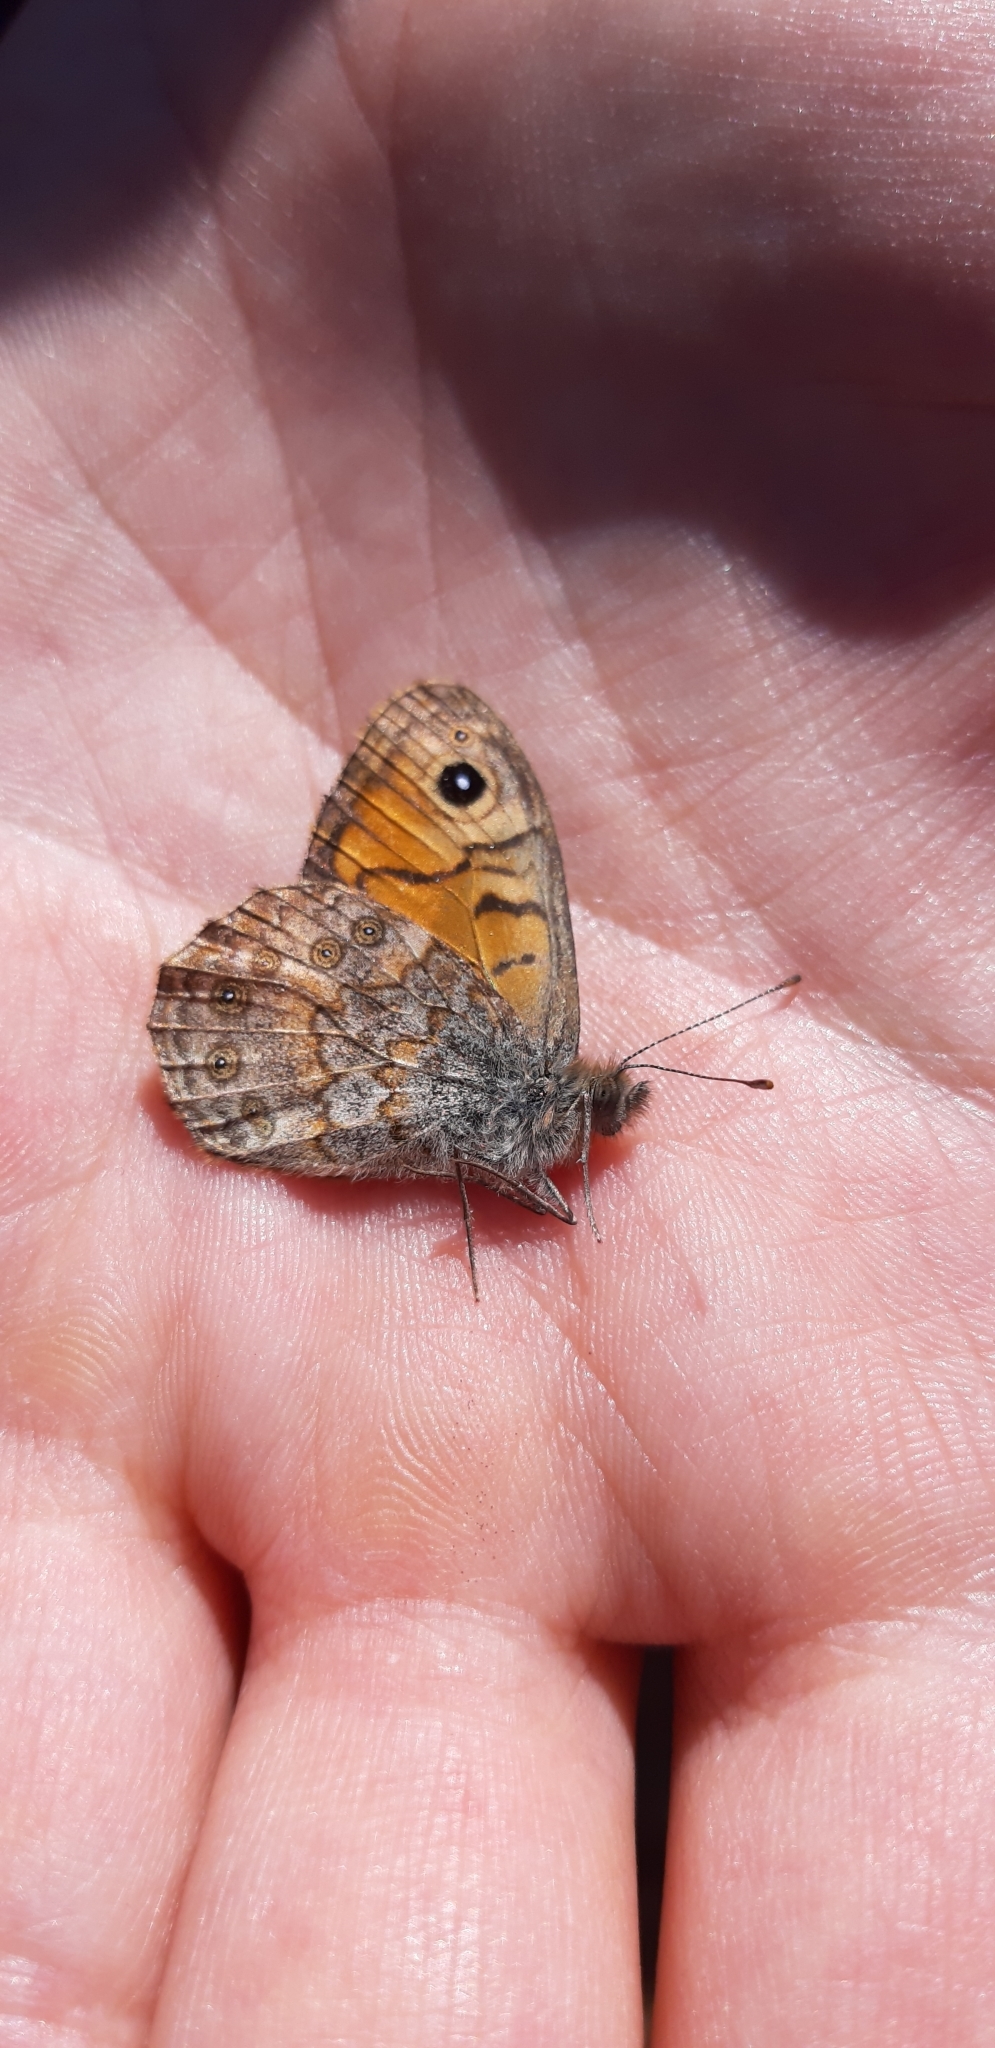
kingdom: Animalia
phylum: Arthropoda
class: Insecta
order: Lepidoptera
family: Nymphalidae
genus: Pararge
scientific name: Pararge Lasiommata megera
